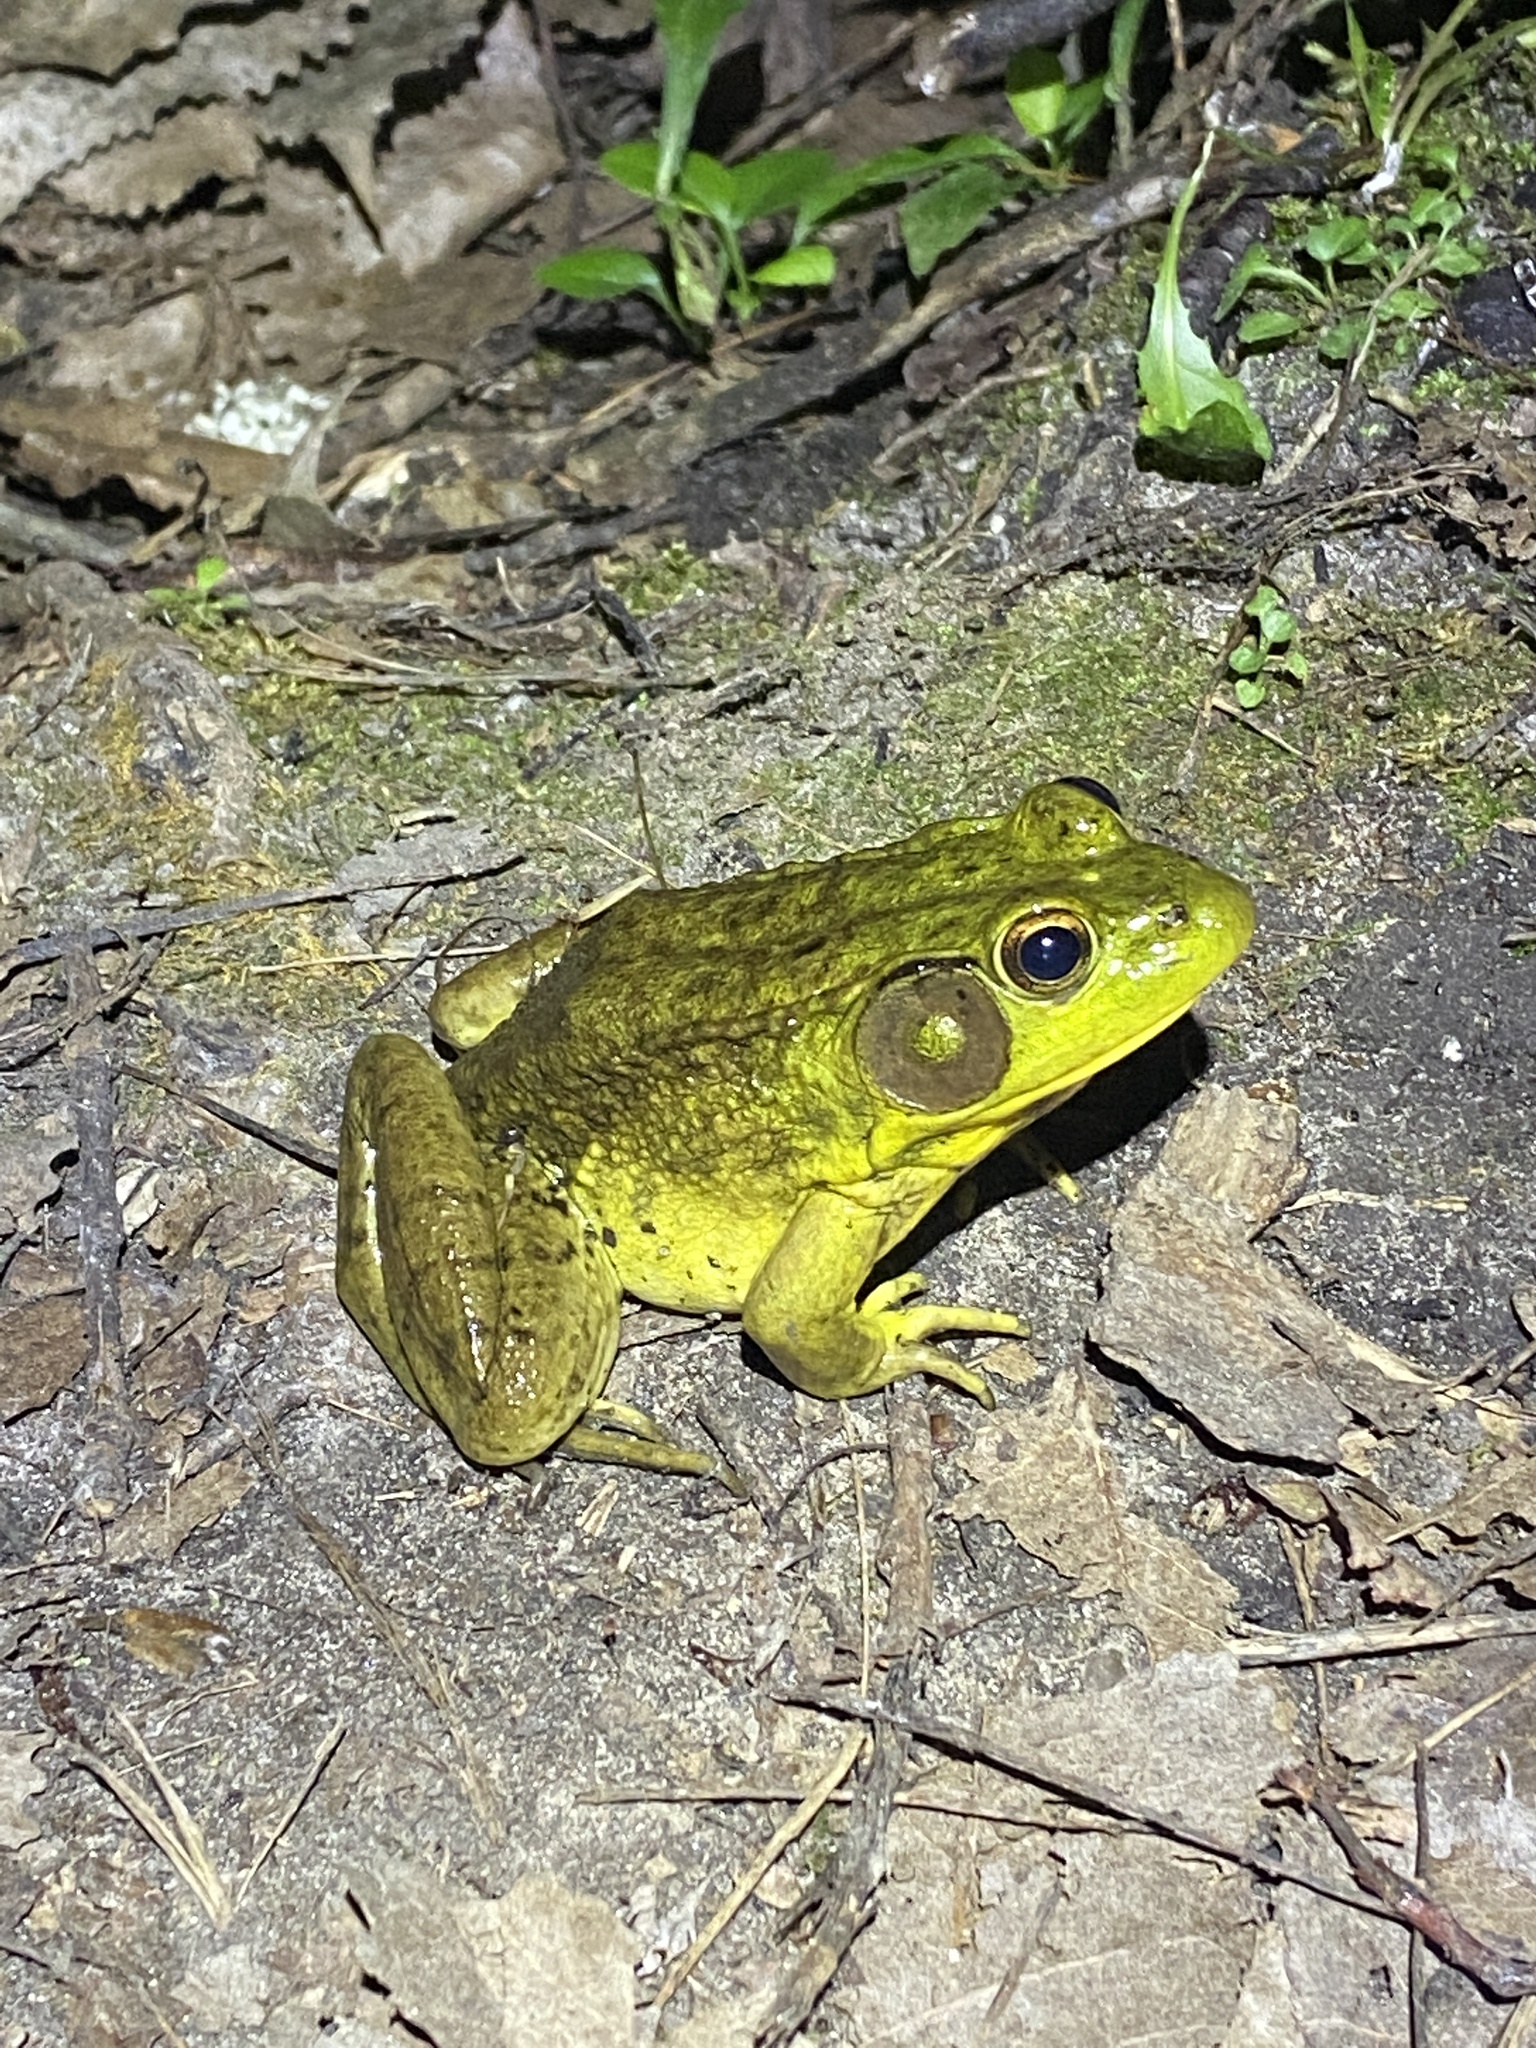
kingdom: Animalia
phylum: Chordata
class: Amphibia
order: Anura
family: Ranidae
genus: Lithobates
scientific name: Lithobates clamitans
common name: Green frog
